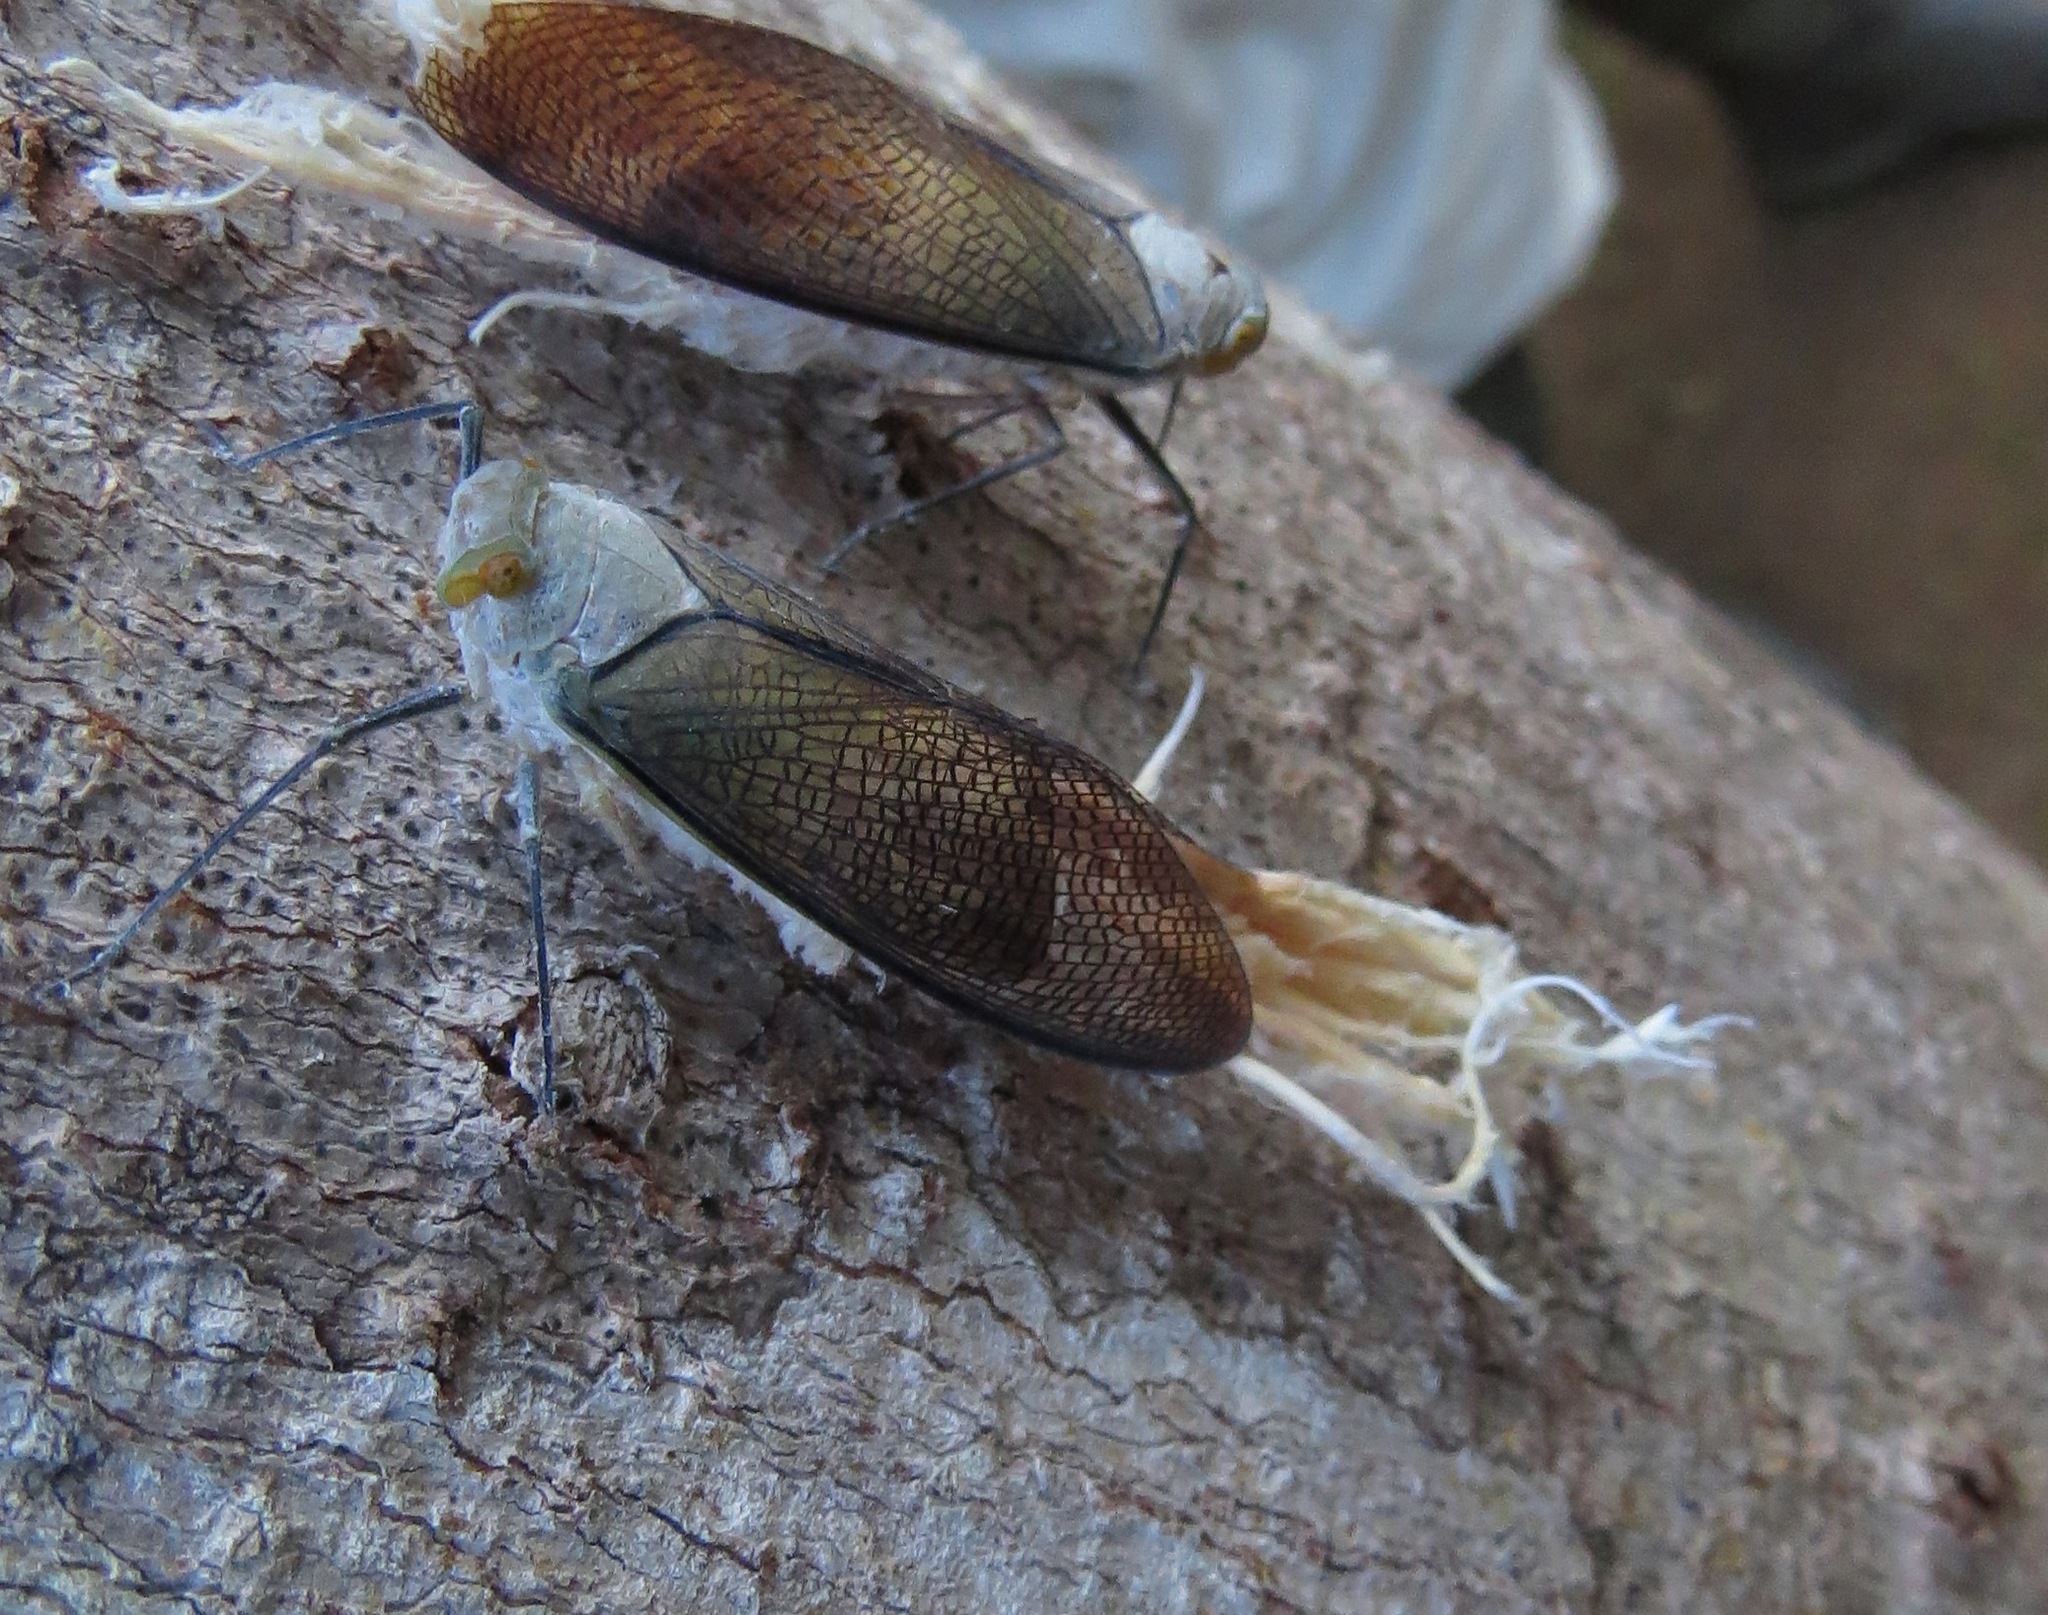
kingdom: Animalia
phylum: Arthropoda
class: Insecta
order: Hemiptera
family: Fulgoridae
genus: Pterodictya
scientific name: Pterodictya reticularis
